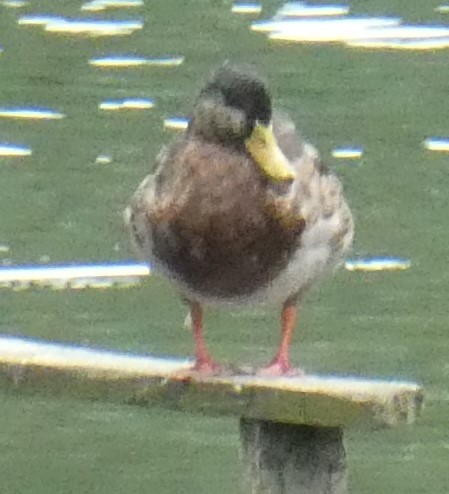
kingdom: Animalia
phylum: Chordata
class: Aves
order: Anseriformes
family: Anatidae
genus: Anas
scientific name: Anas platyrhynchos
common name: Mallard
